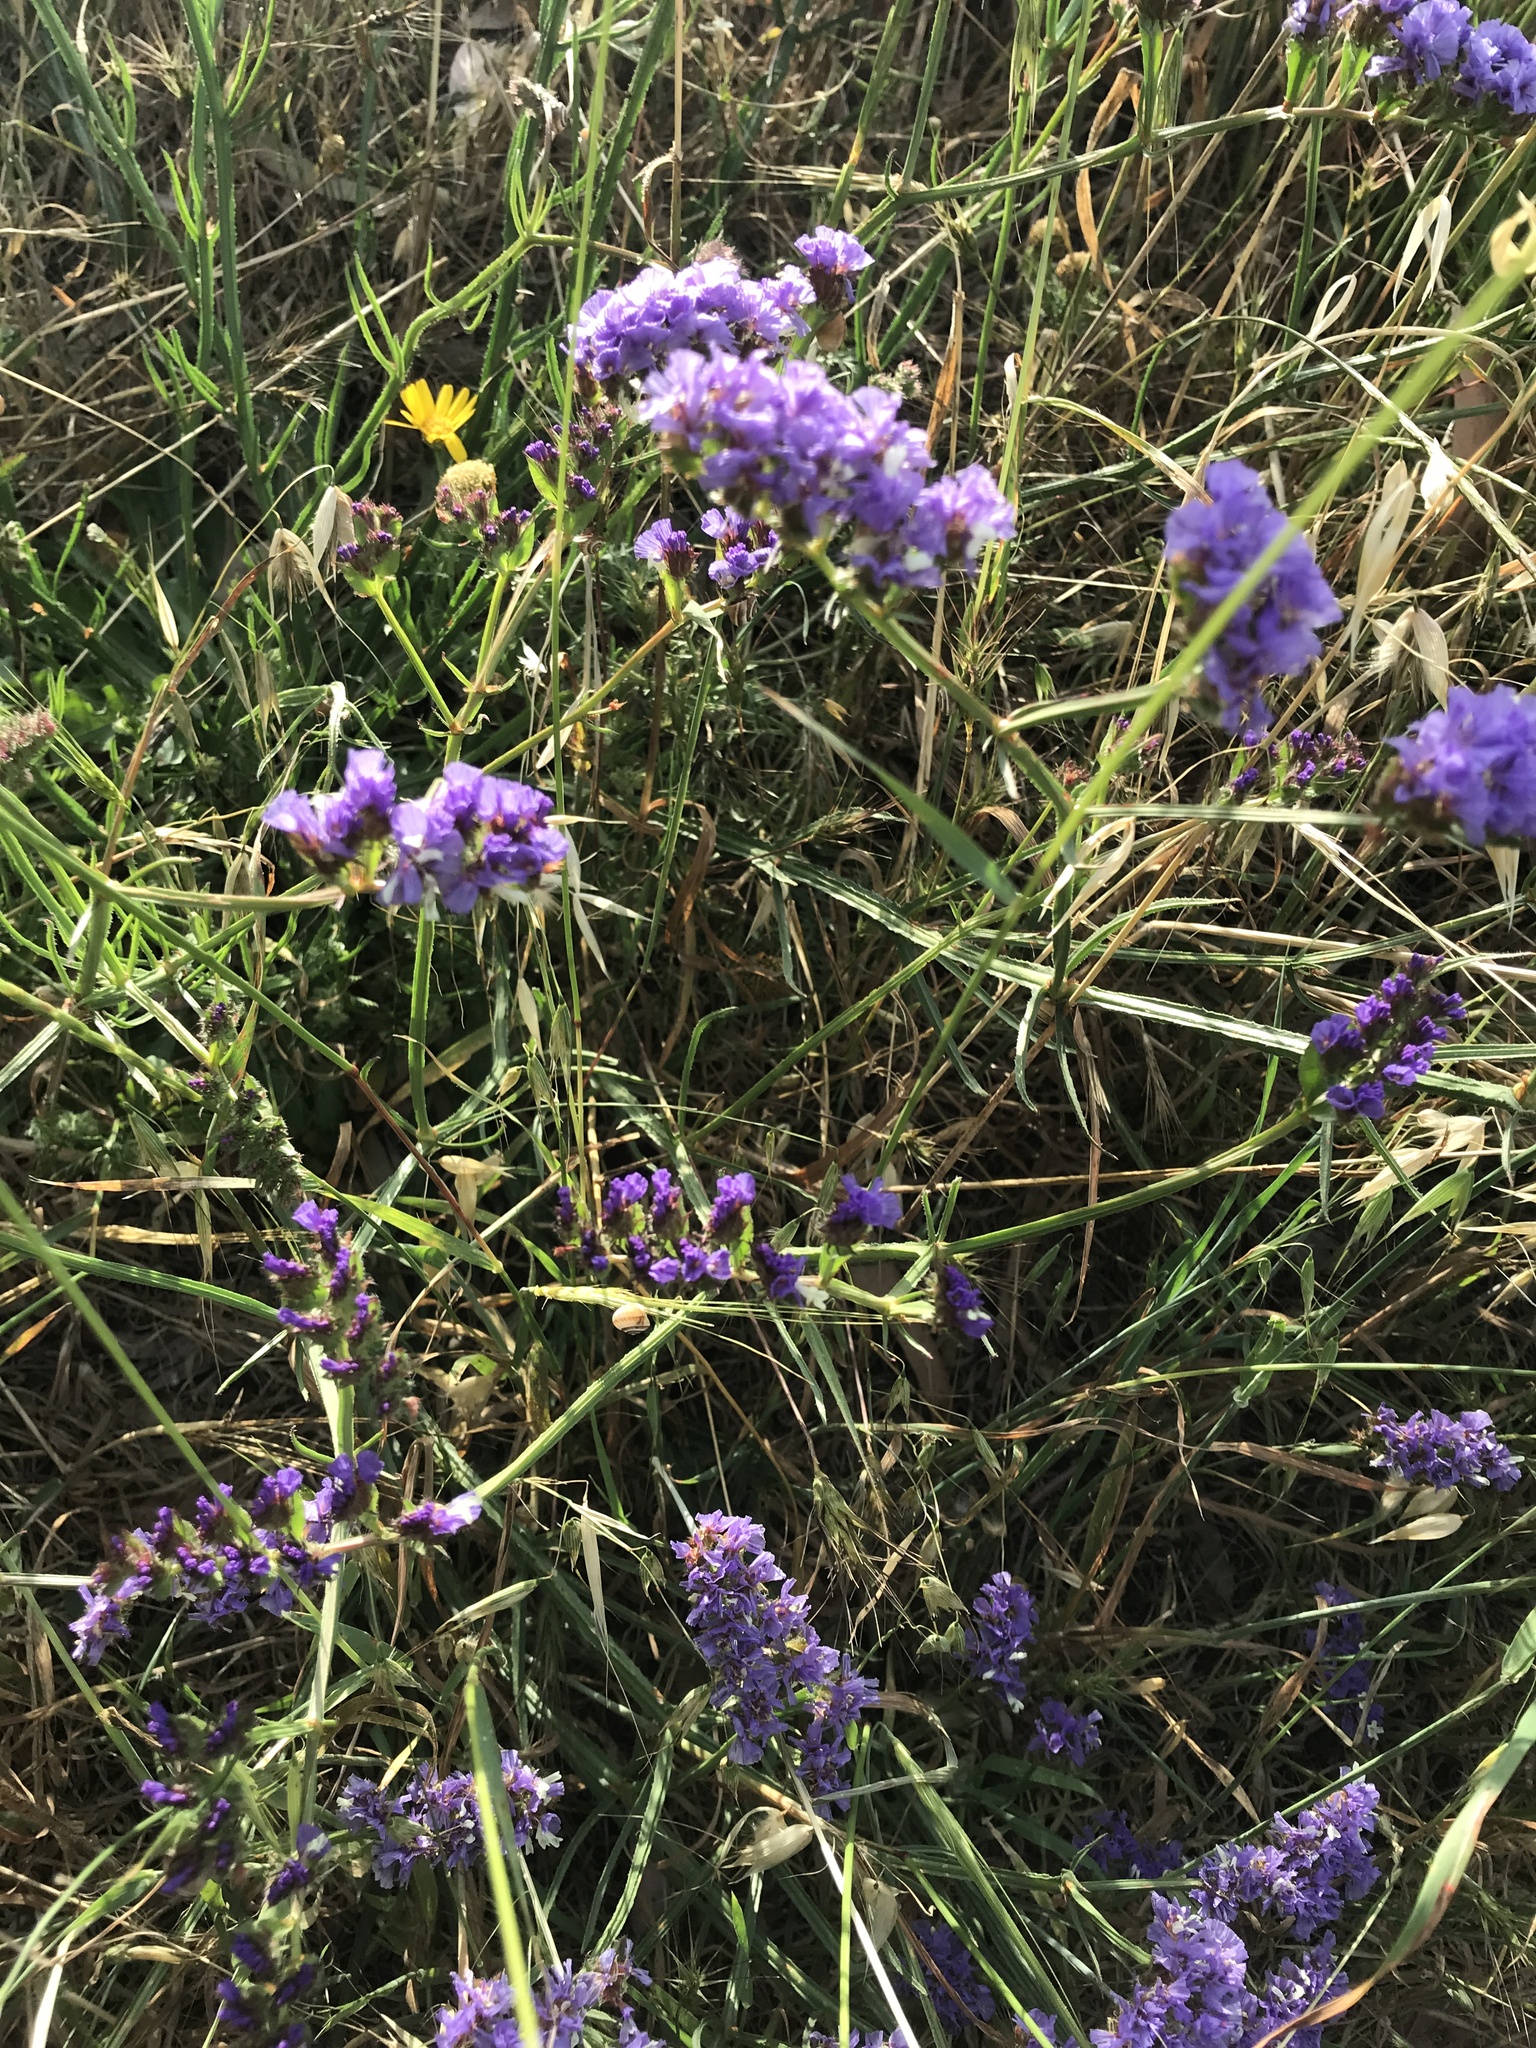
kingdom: Plantae
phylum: Tracheophyta
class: Magnoliopsida
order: Caryophyllales
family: Plumbaginaceae
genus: Limonium
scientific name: Limonium sinuatum
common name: Statice
